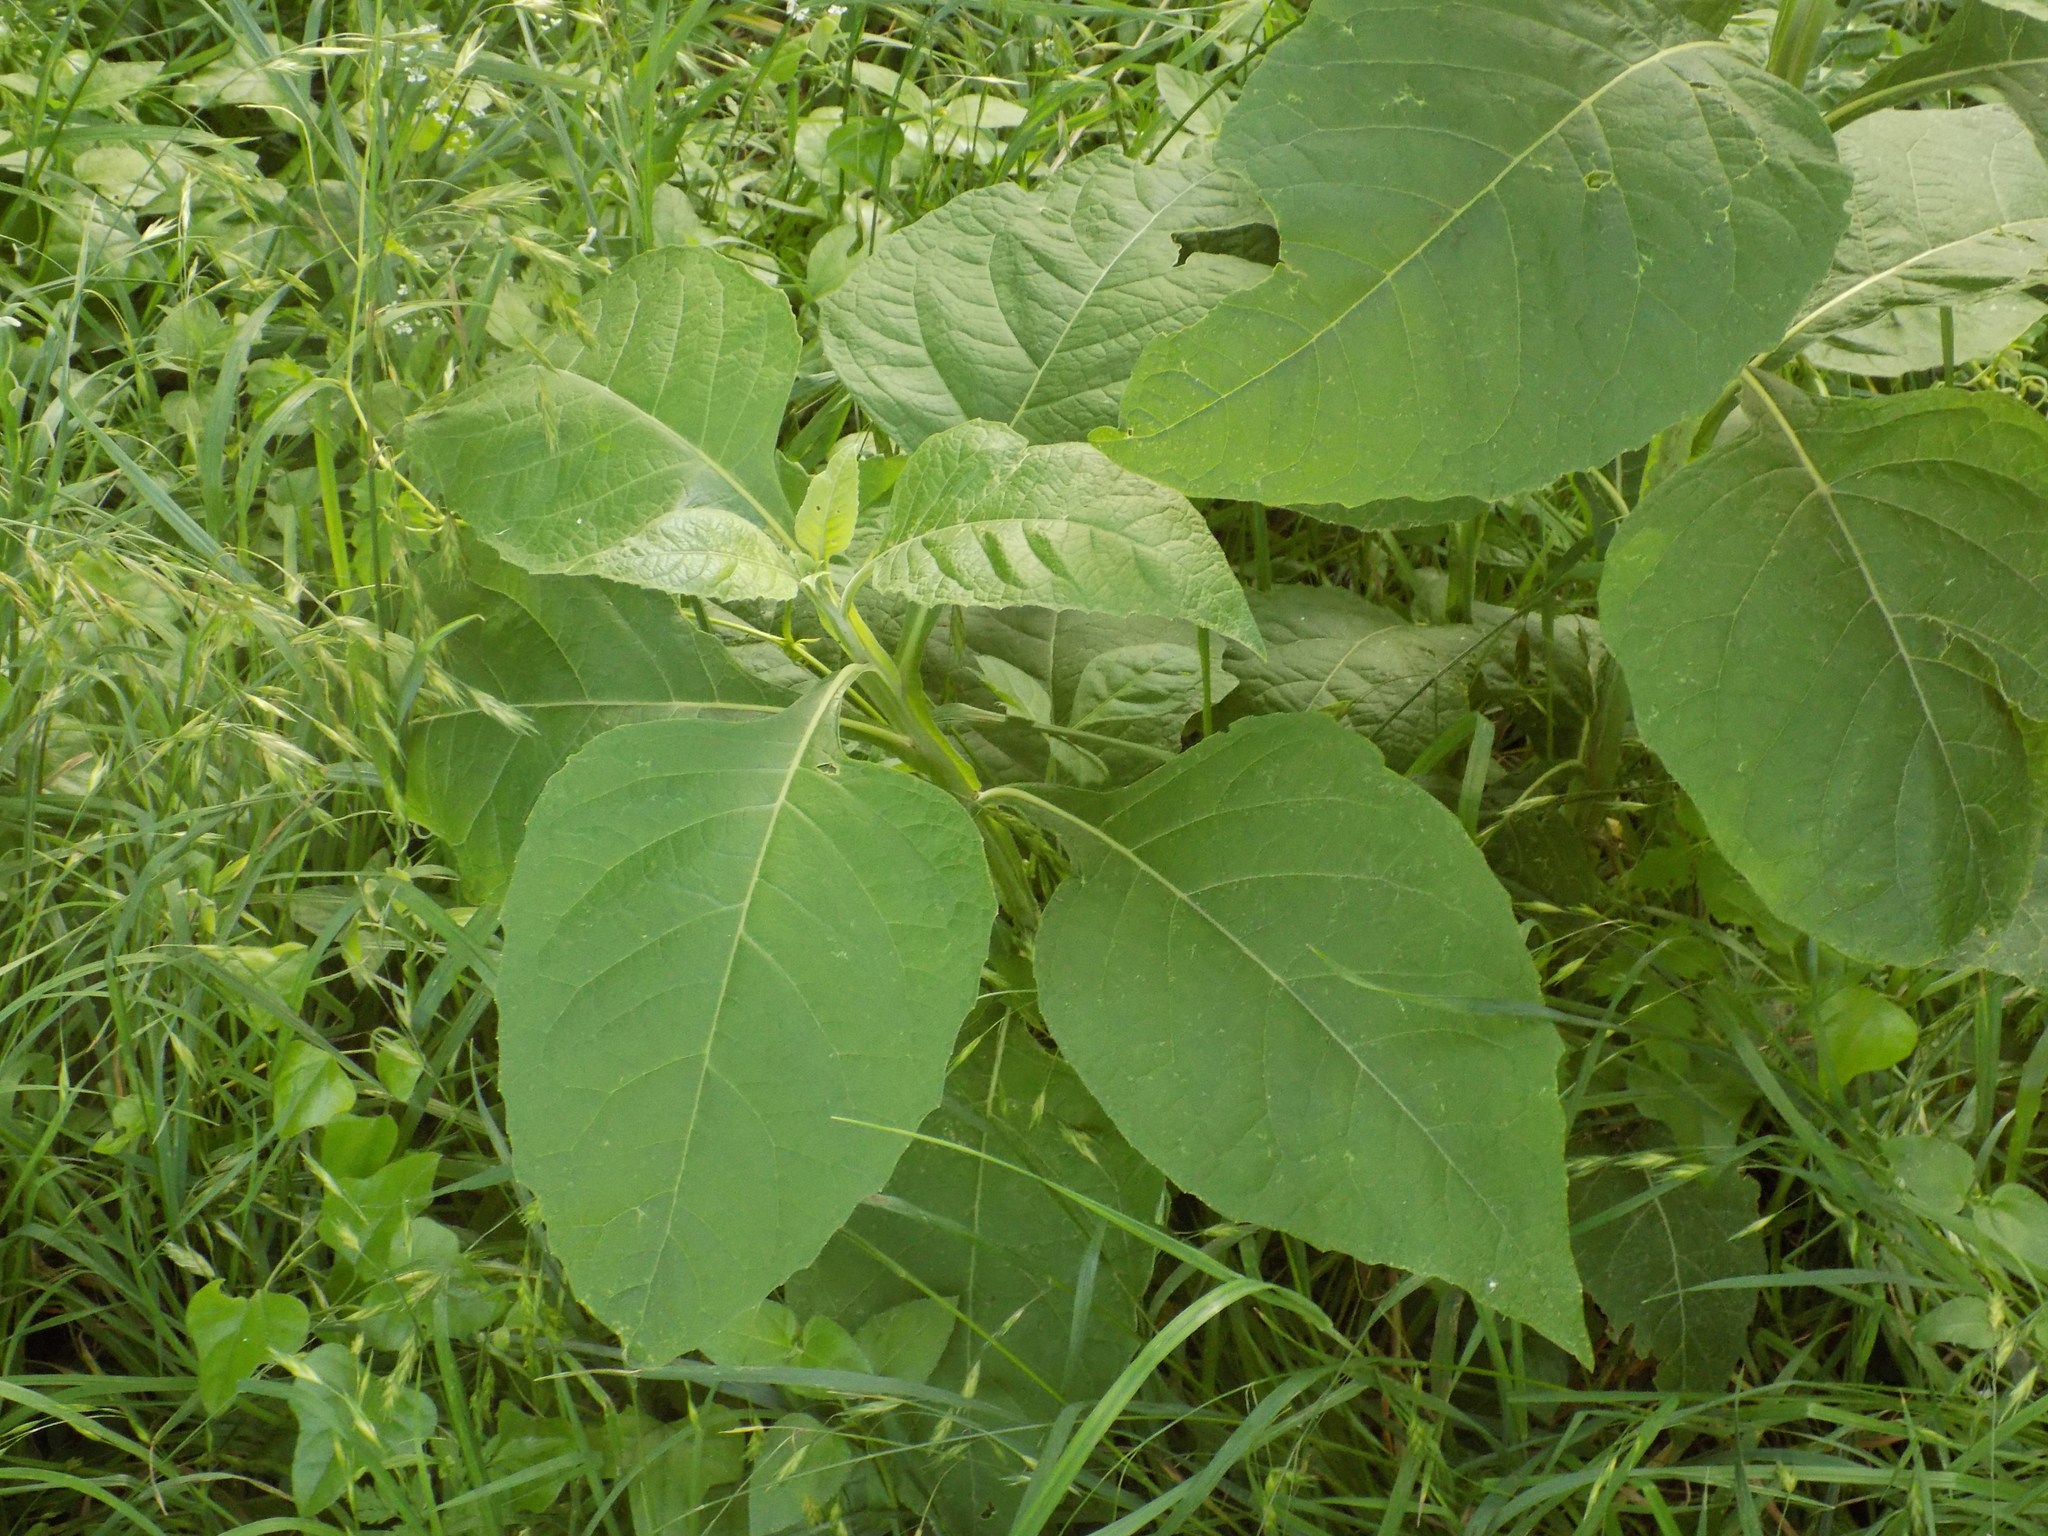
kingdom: Plantae
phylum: Tracheophyta
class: Magnoliopsida
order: Asterales
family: Asteraceae
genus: Verbesina
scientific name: Verbesina virginica
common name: Frostweed
